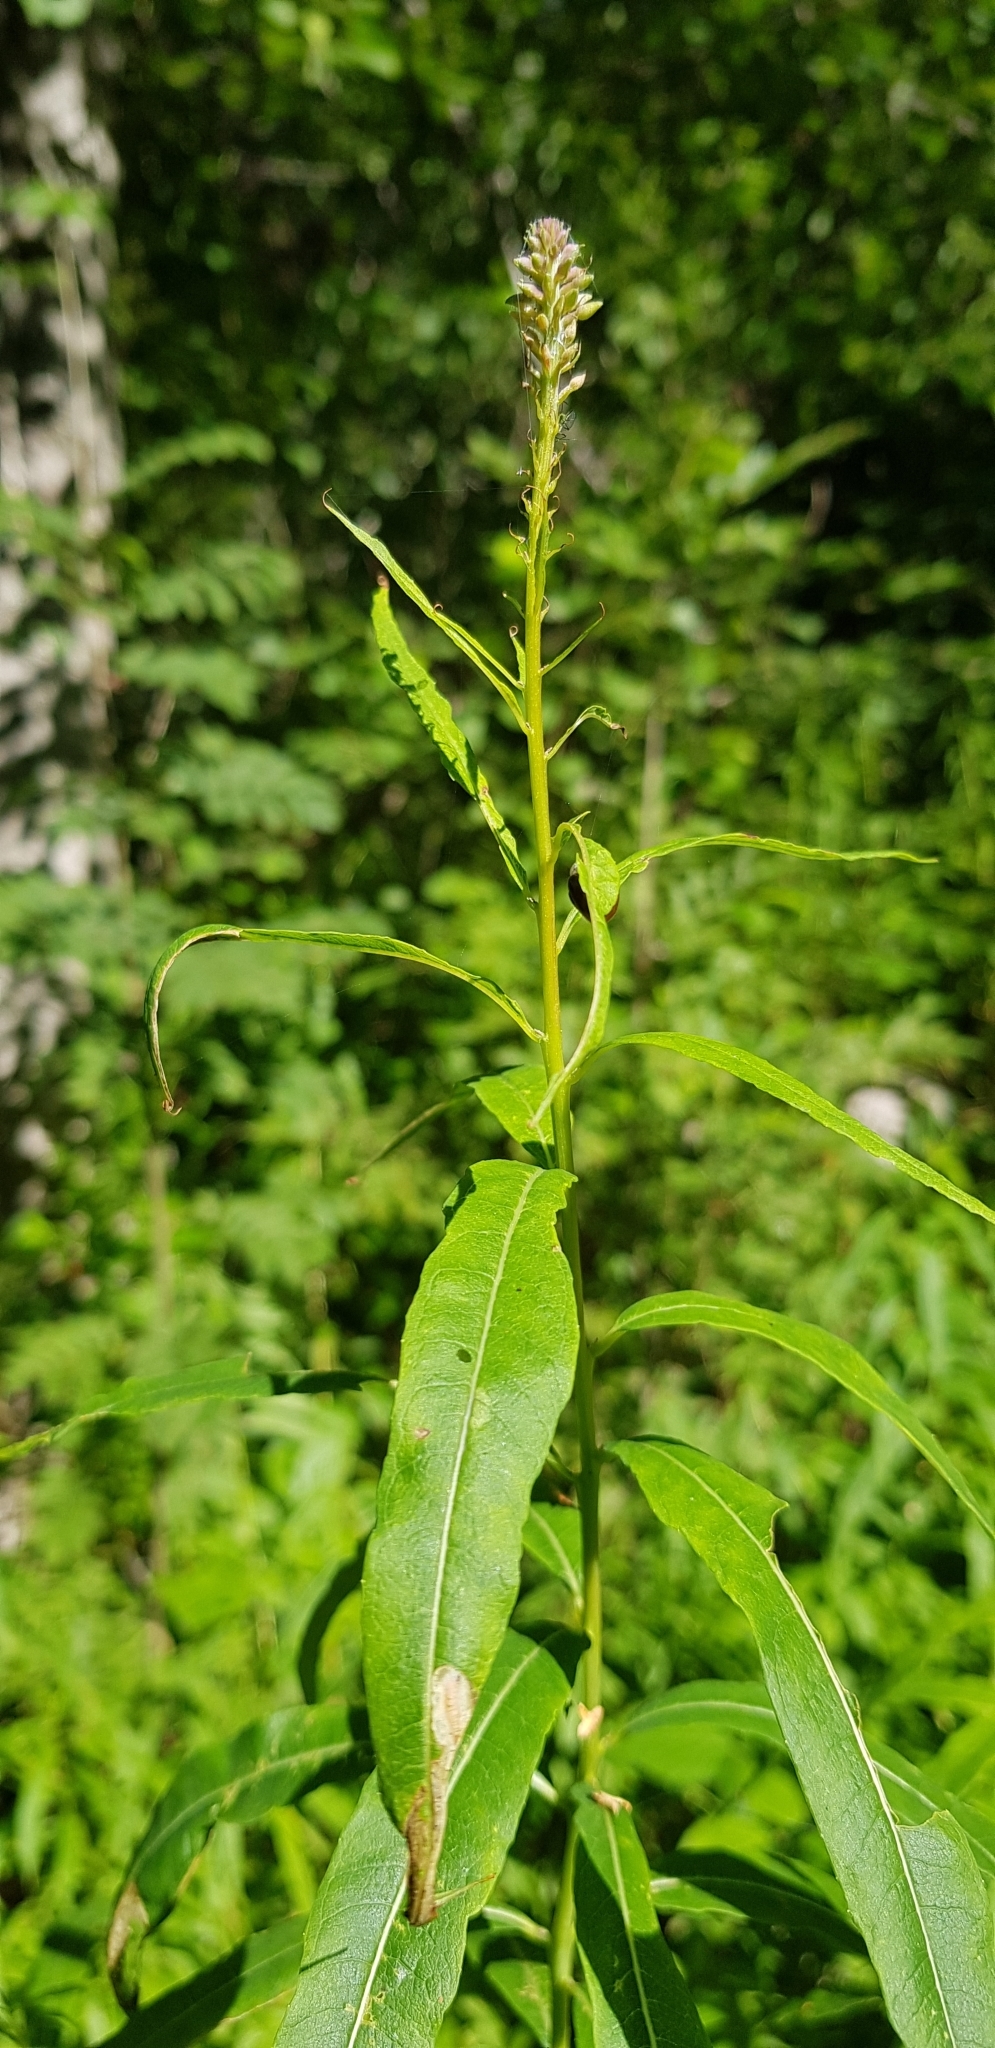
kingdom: Plantae
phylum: Tracheophyta
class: Magnoliopsida
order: Myrtales
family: Onagraceae
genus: Chamaenerion
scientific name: Chamaenerion angustifolium
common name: Fireweed
